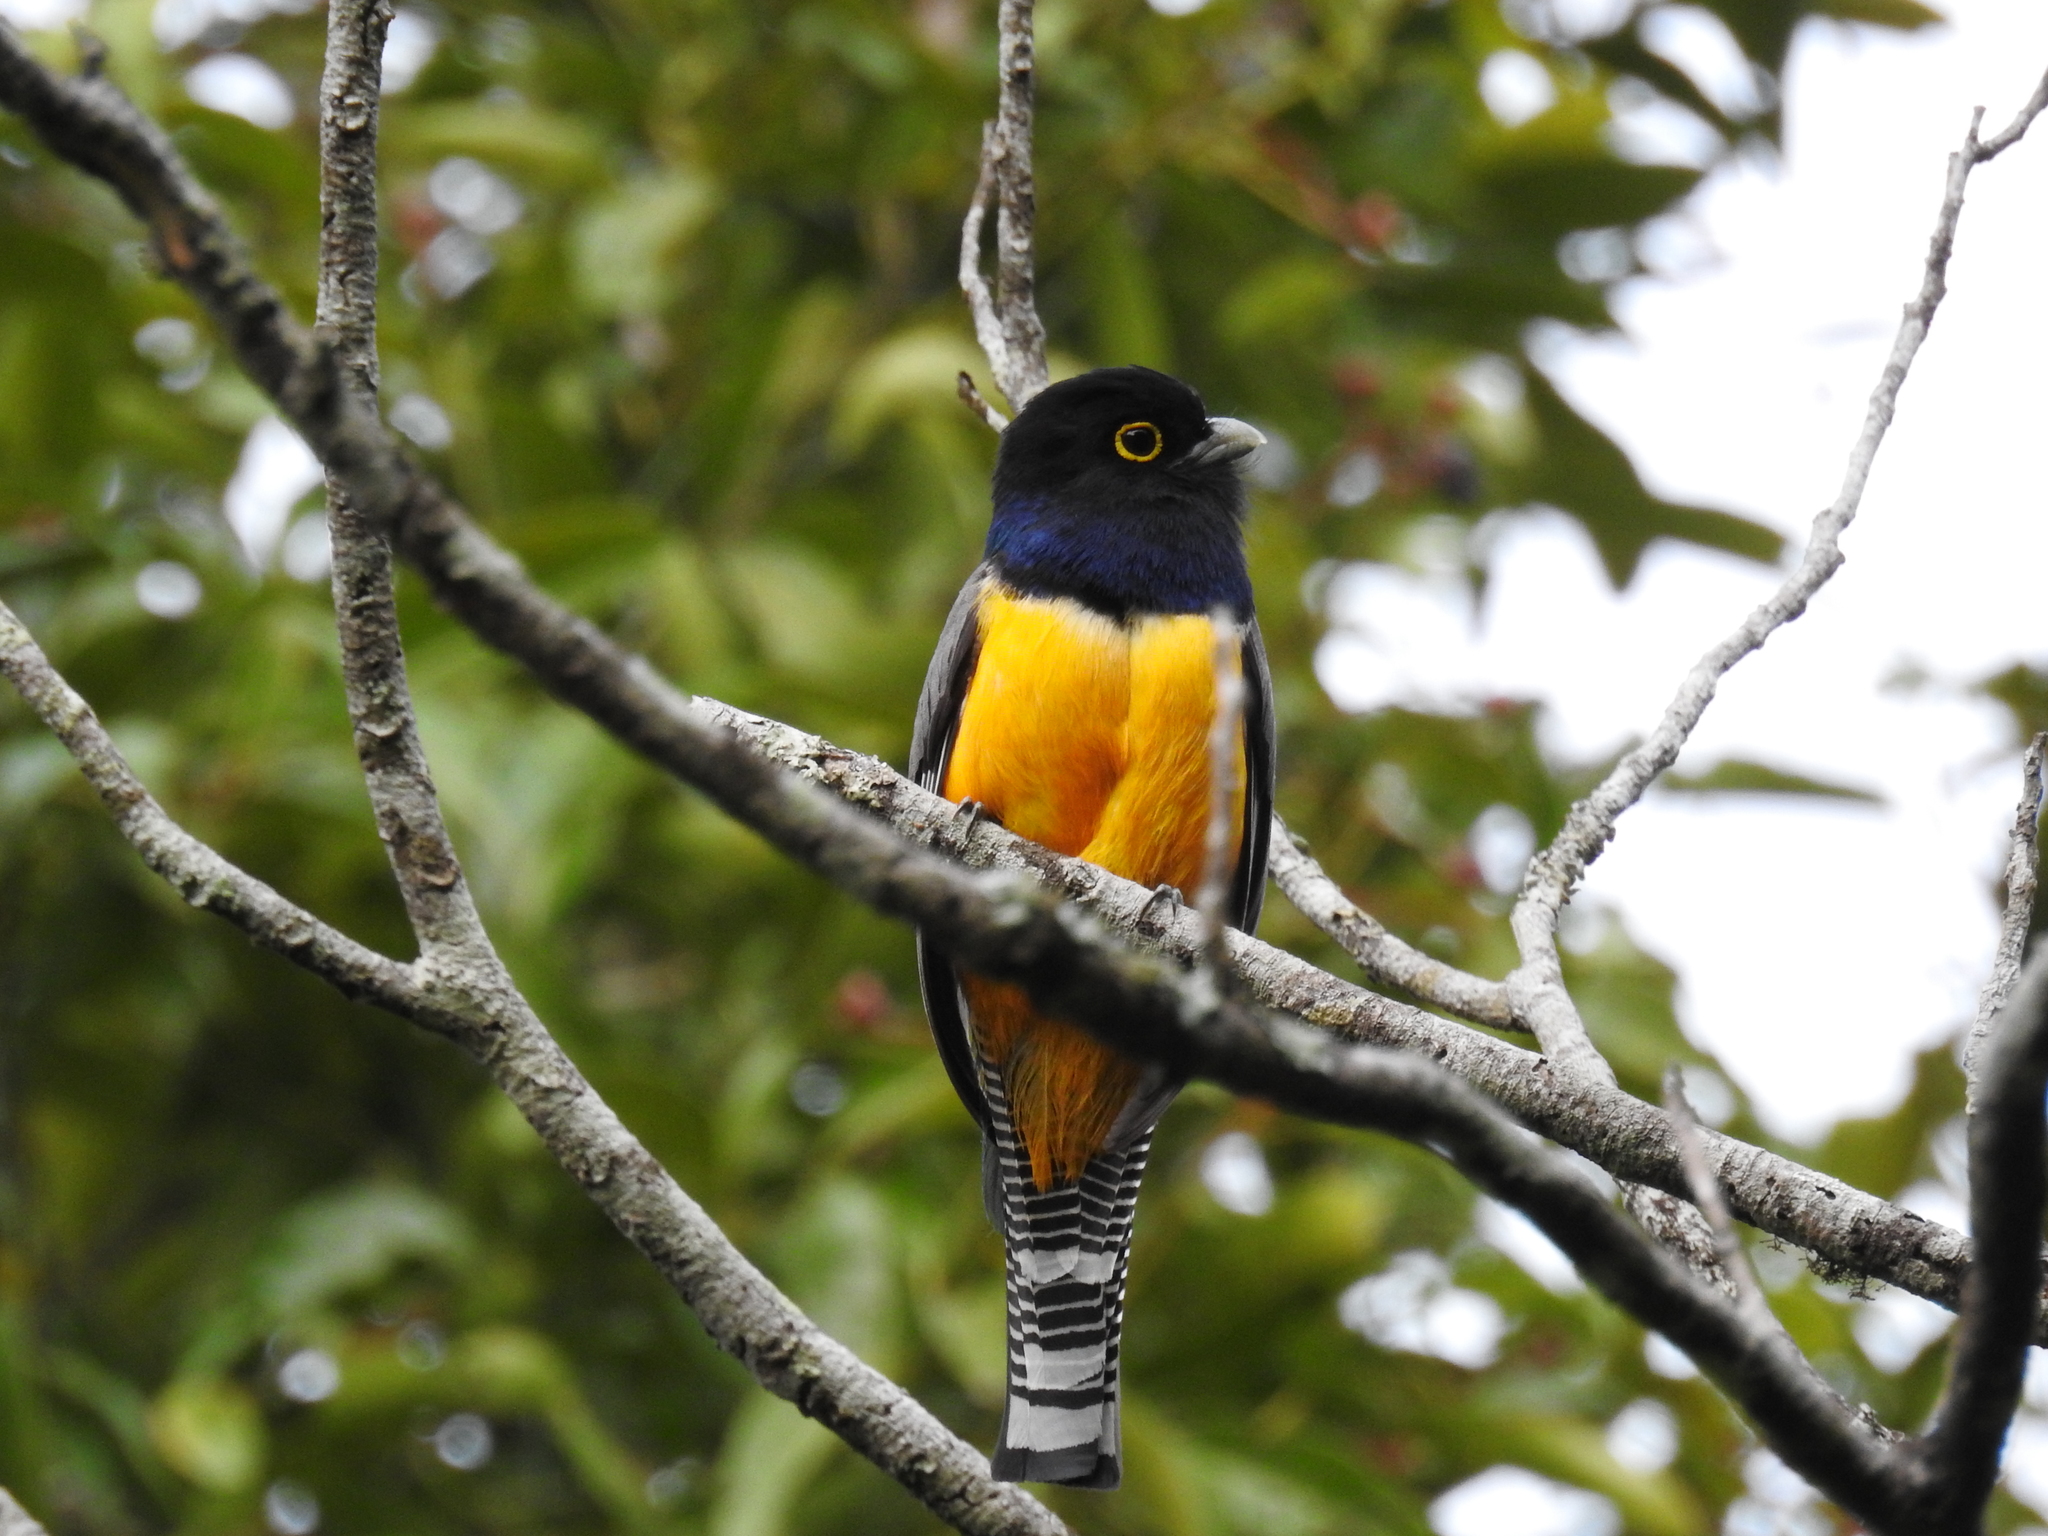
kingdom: Animalia
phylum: Chordata
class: Aves
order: Trogoniformes
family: Trogonidae
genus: Trogon
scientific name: Trogon caligatus
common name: Gartered trogon
